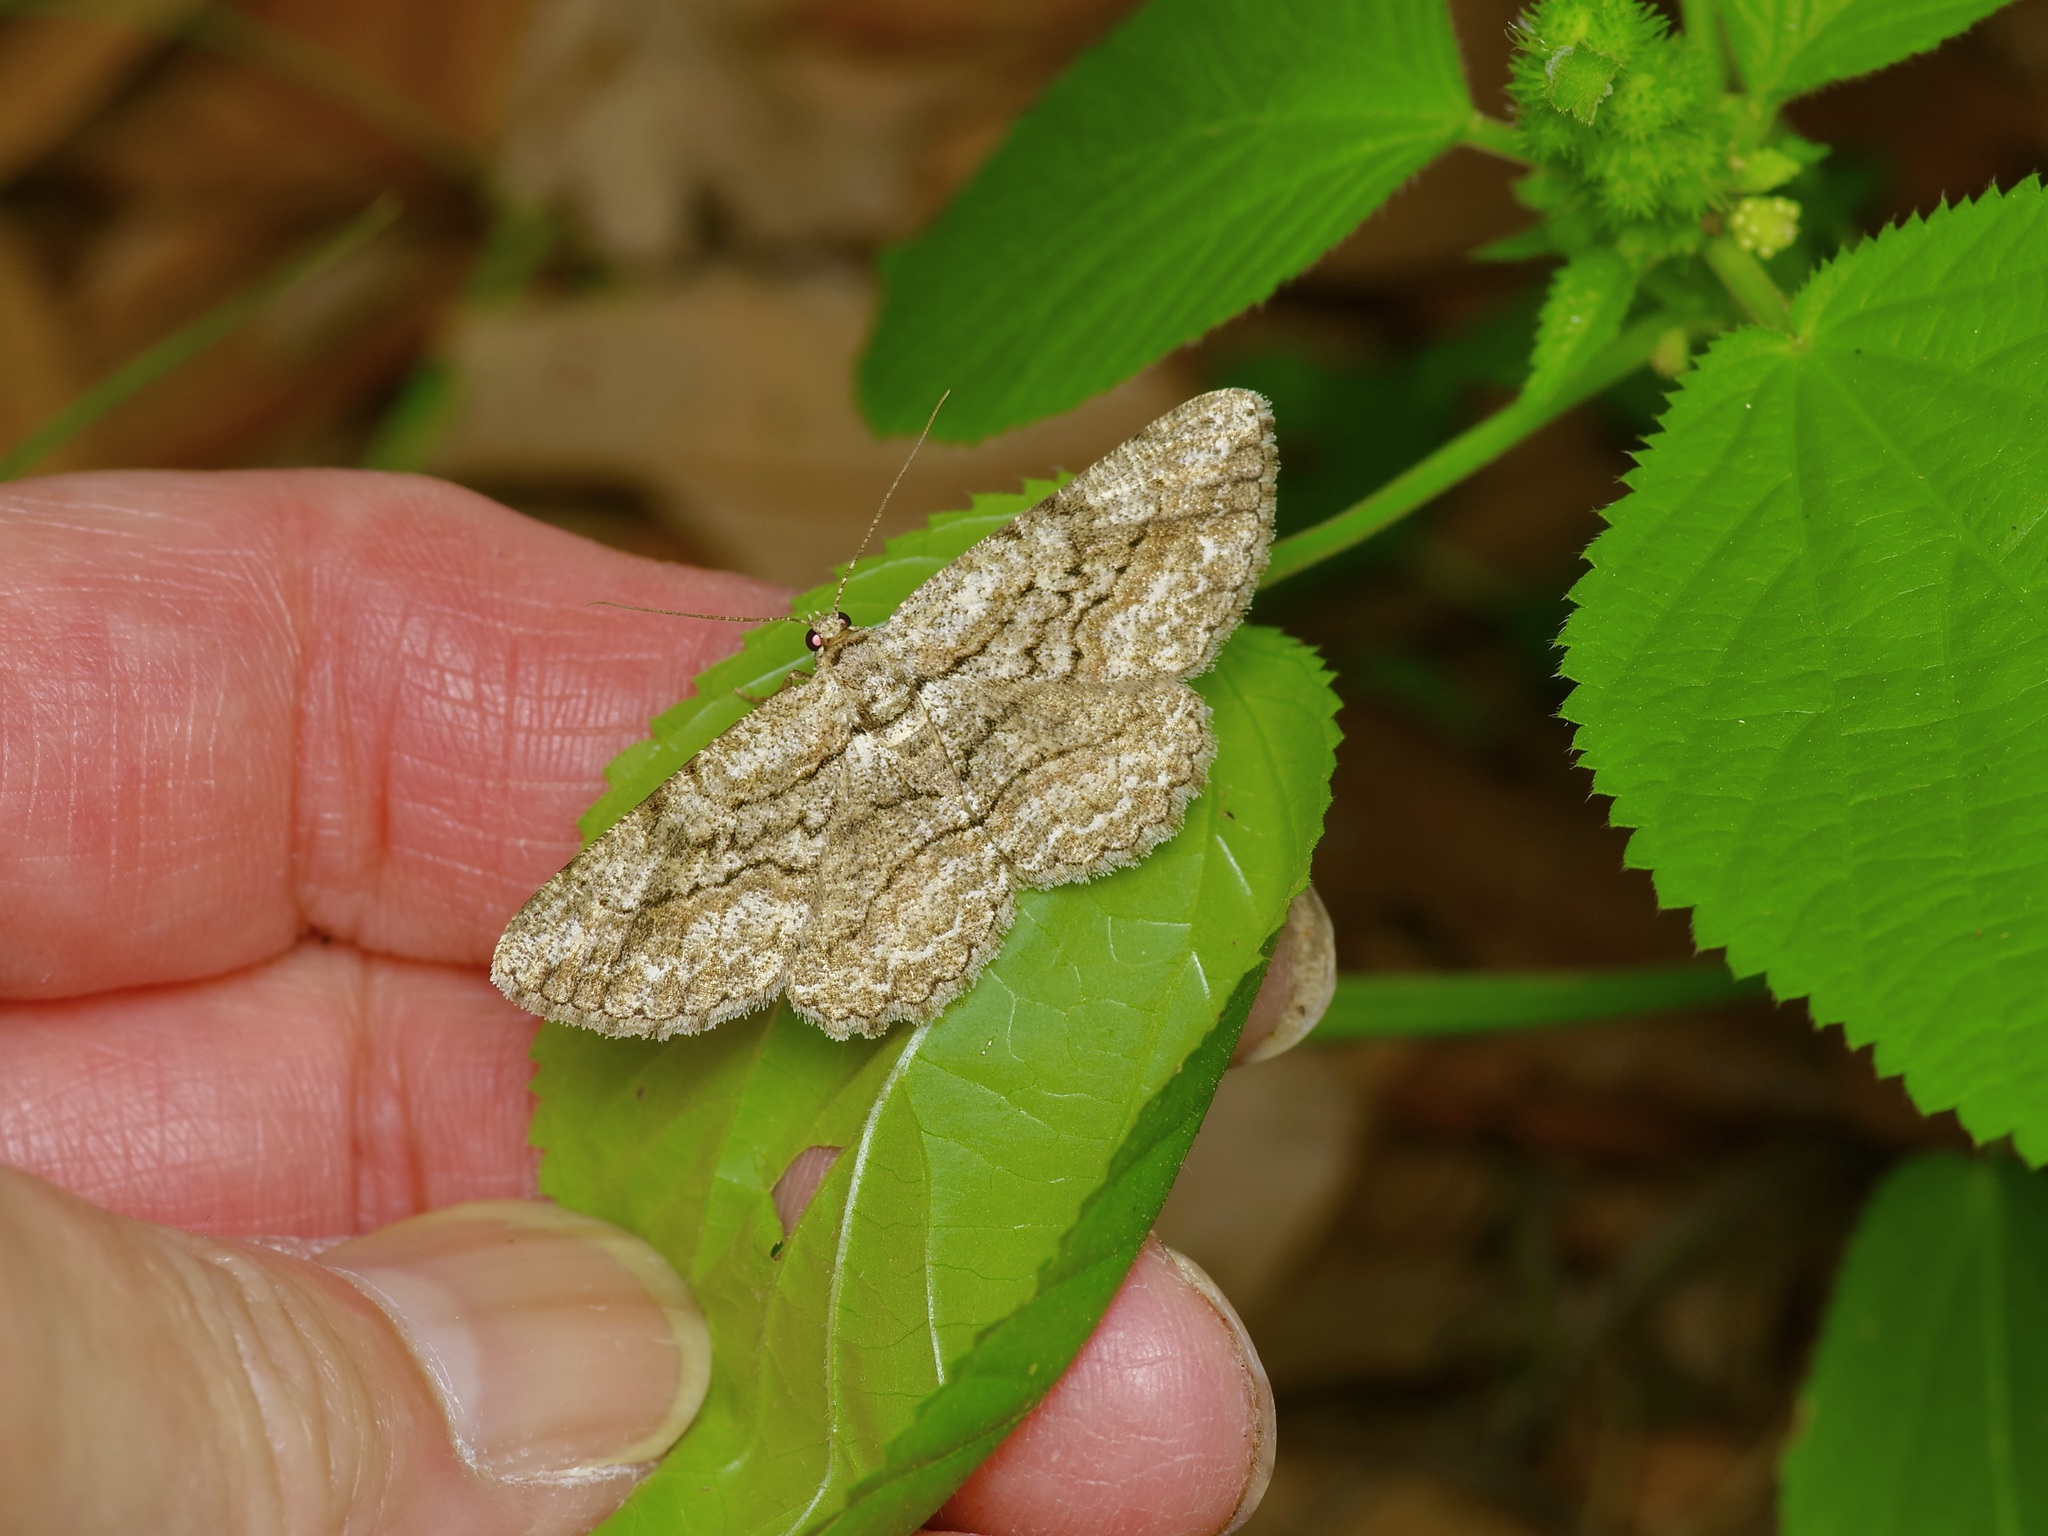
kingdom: Animalia
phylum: Arthropoda
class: Insecta
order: Lepidoptera
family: Geometridae
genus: Anavitrinella
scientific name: Anavitrinella pampinaria
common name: Common gray
